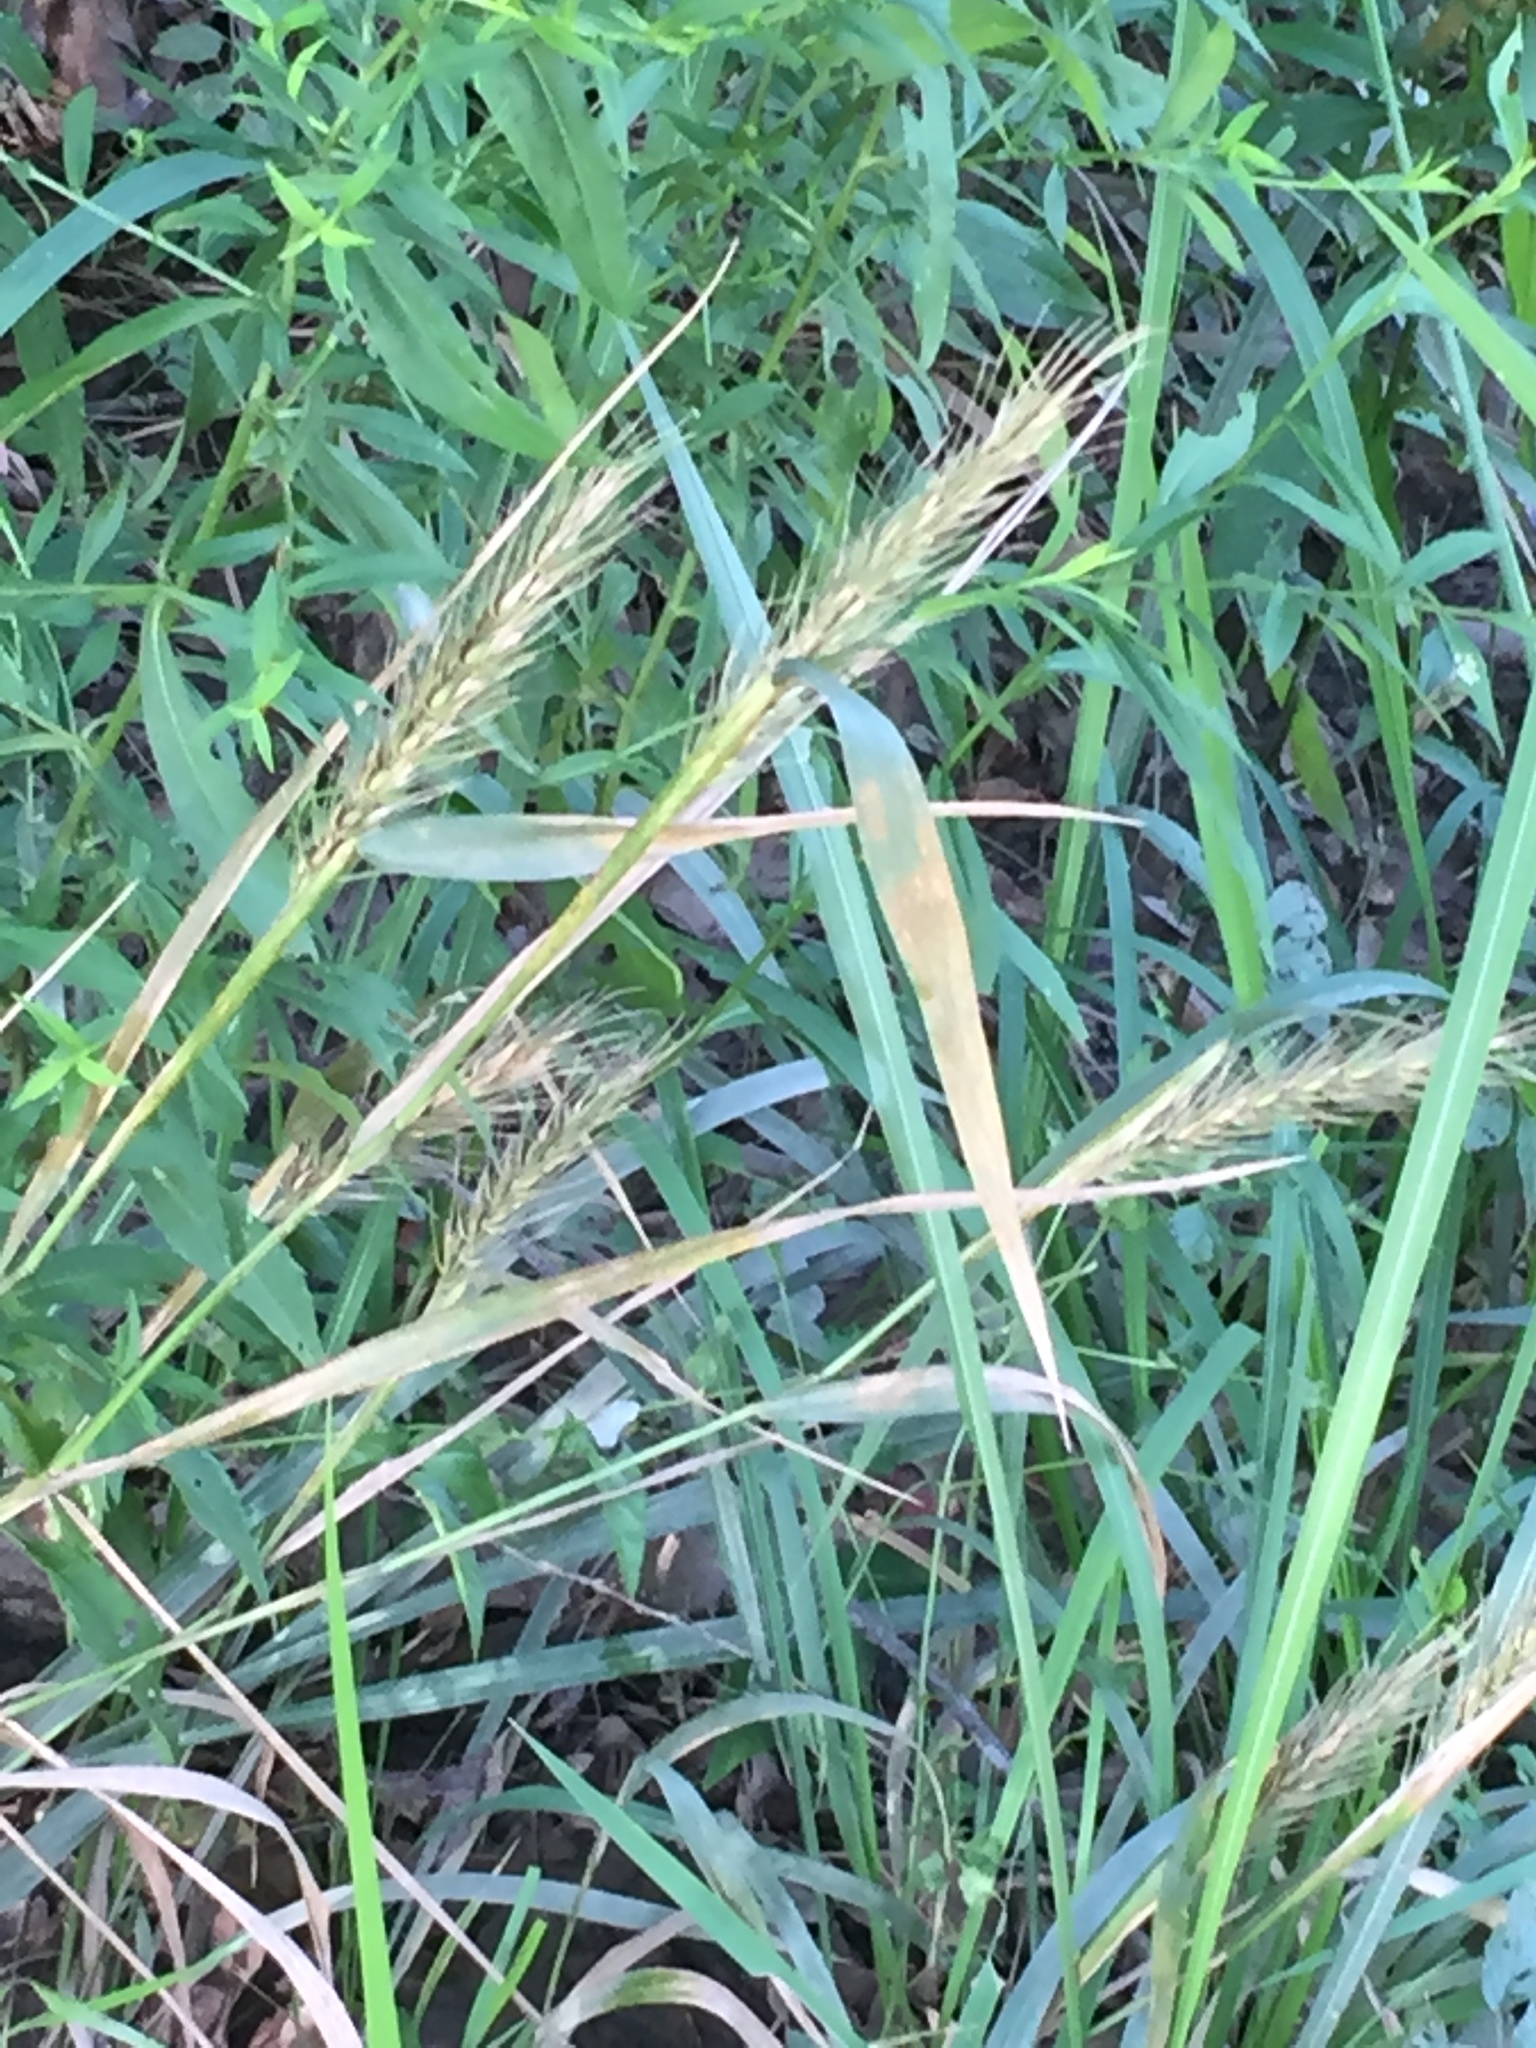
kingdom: Plantae
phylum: Tracheophyta
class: Liliopsida
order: Poales
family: Poaceae
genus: Elymus
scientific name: Elymus virginicus
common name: Common eastern wildrye
